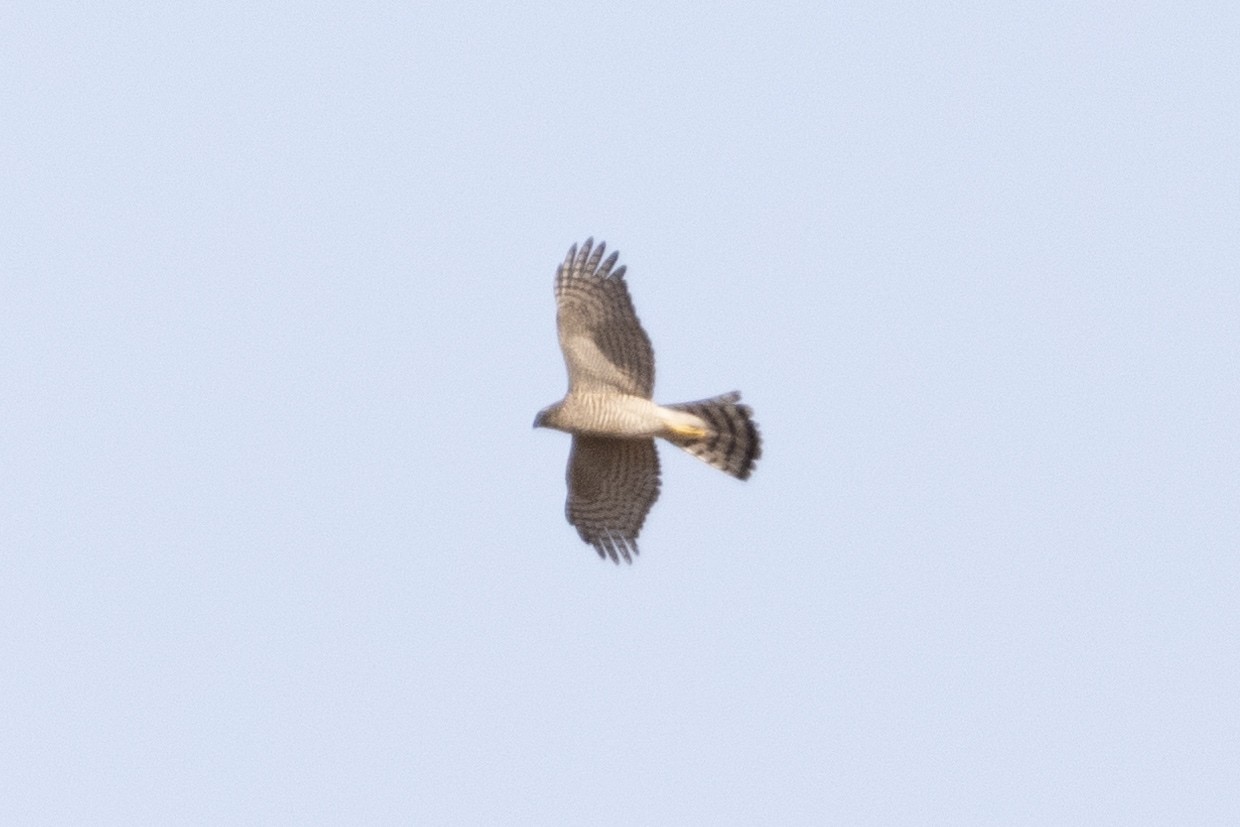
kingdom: Animalia
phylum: Chordata
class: Aves
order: Accipitriformes
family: Accipitridae
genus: Accipiter
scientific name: Accipiter nisus
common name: Eurasian sparrowhawk
